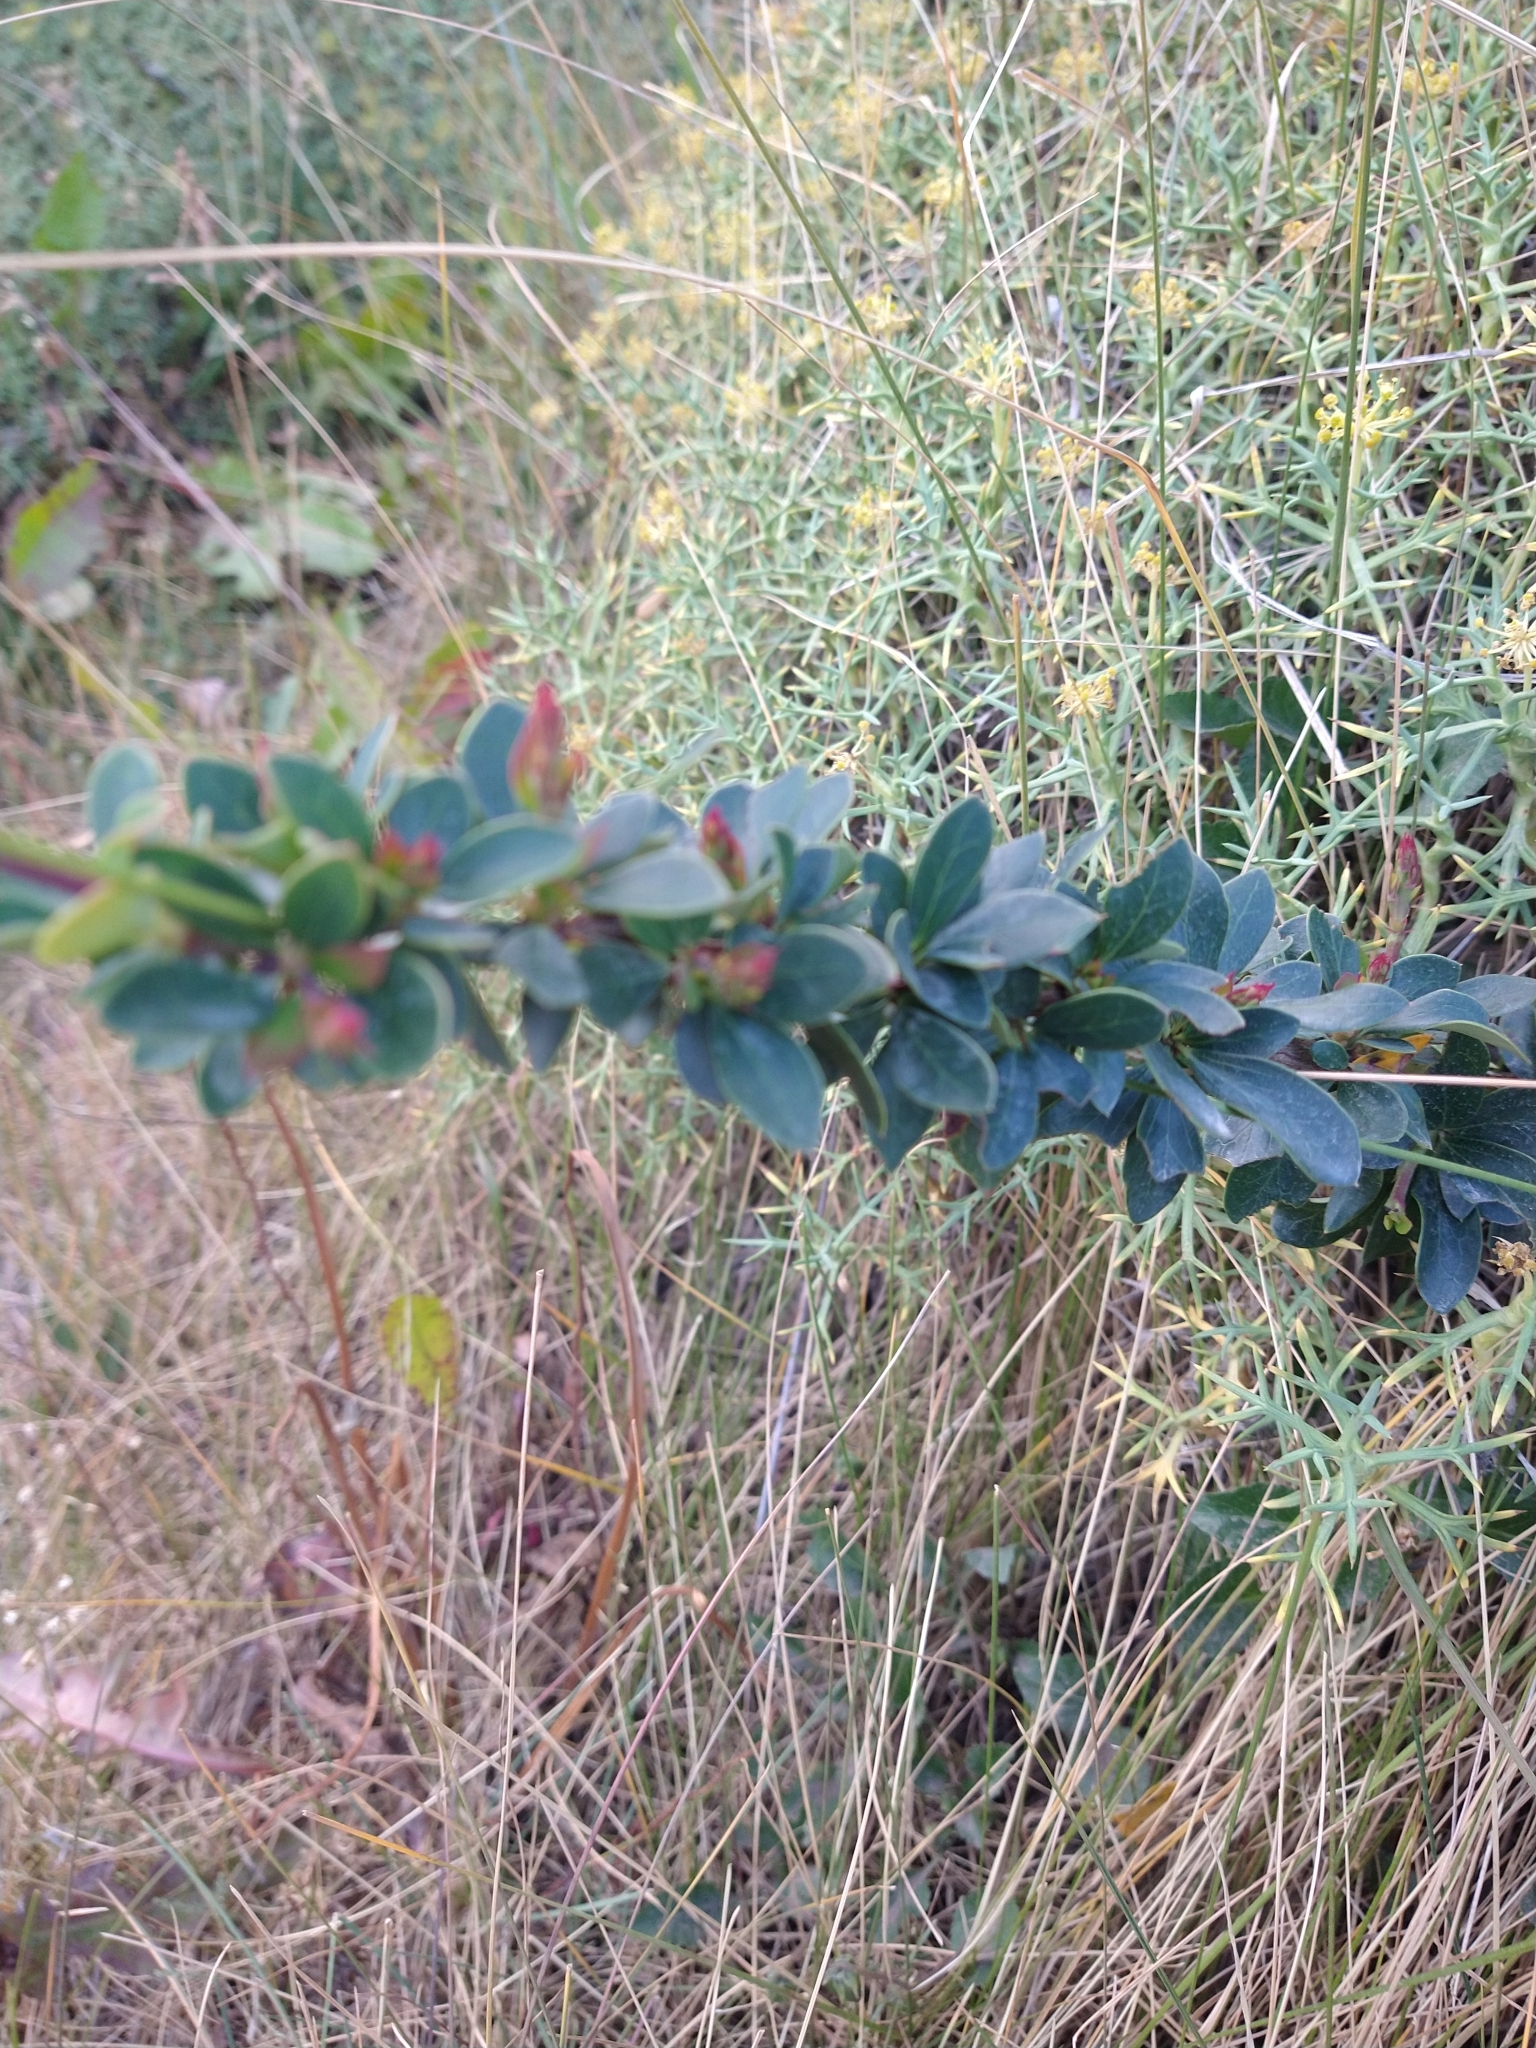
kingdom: Plantae
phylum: Tracheophyta
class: Magnoliopsida
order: Ranunculales
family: Berberidaceae
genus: Berberis
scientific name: Berberis microphylla
